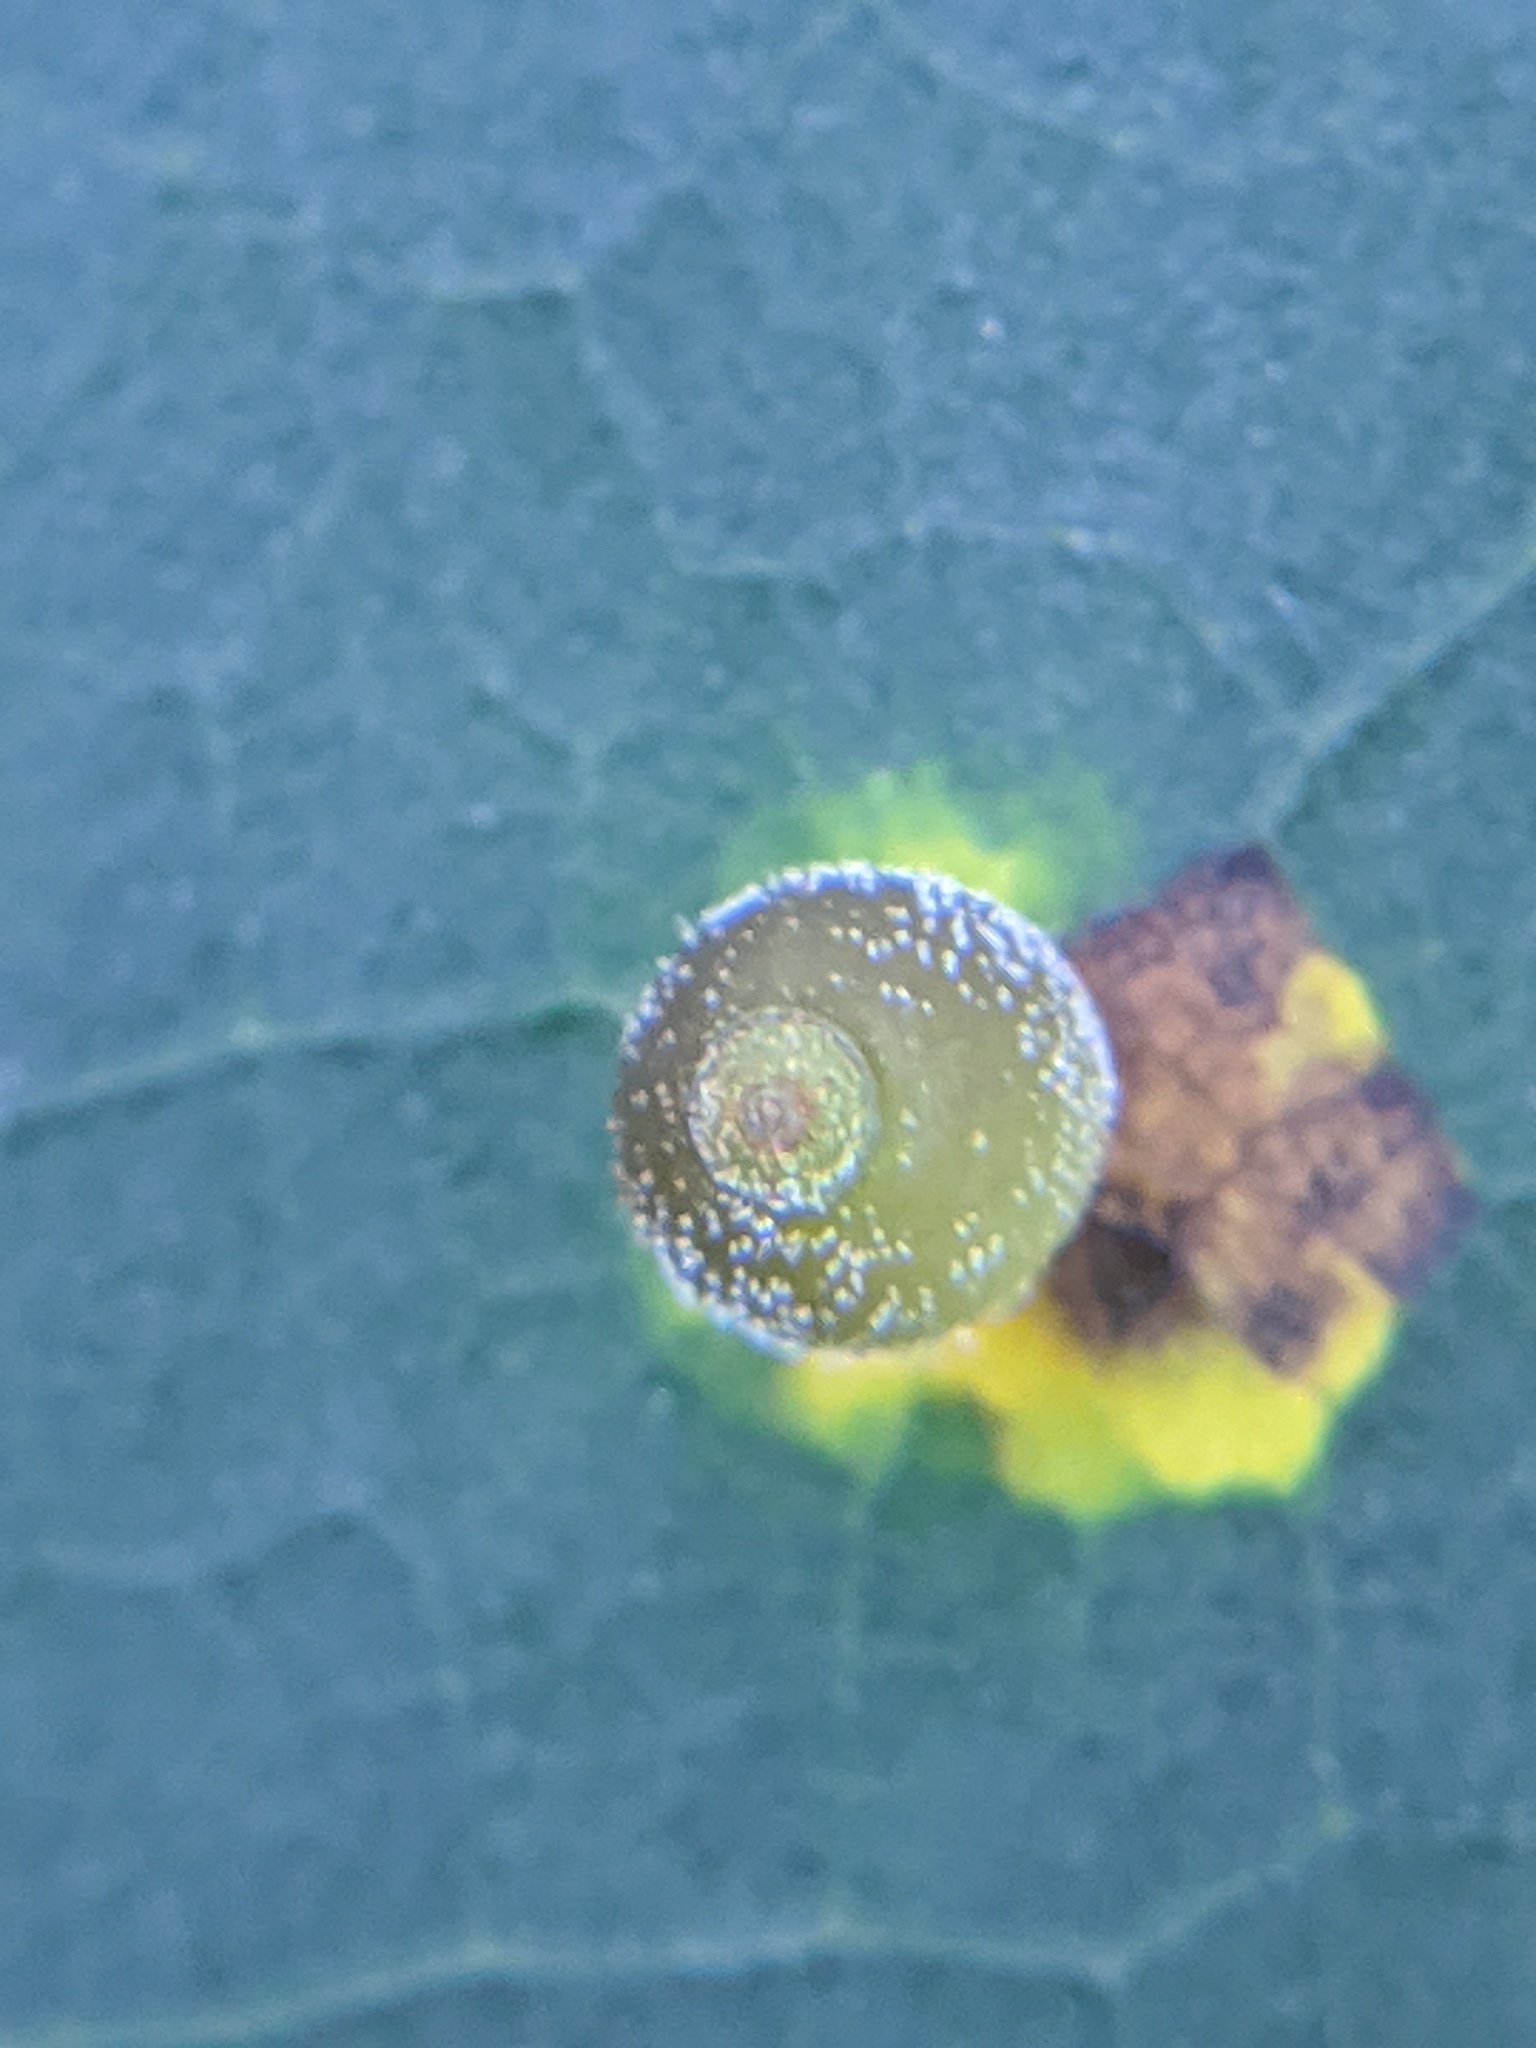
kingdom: Animalia
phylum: Arthropoda
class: Insecta
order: Diptera
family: Cecidomyiidae
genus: Caryomyia
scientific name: Caryomyia viscidolium
